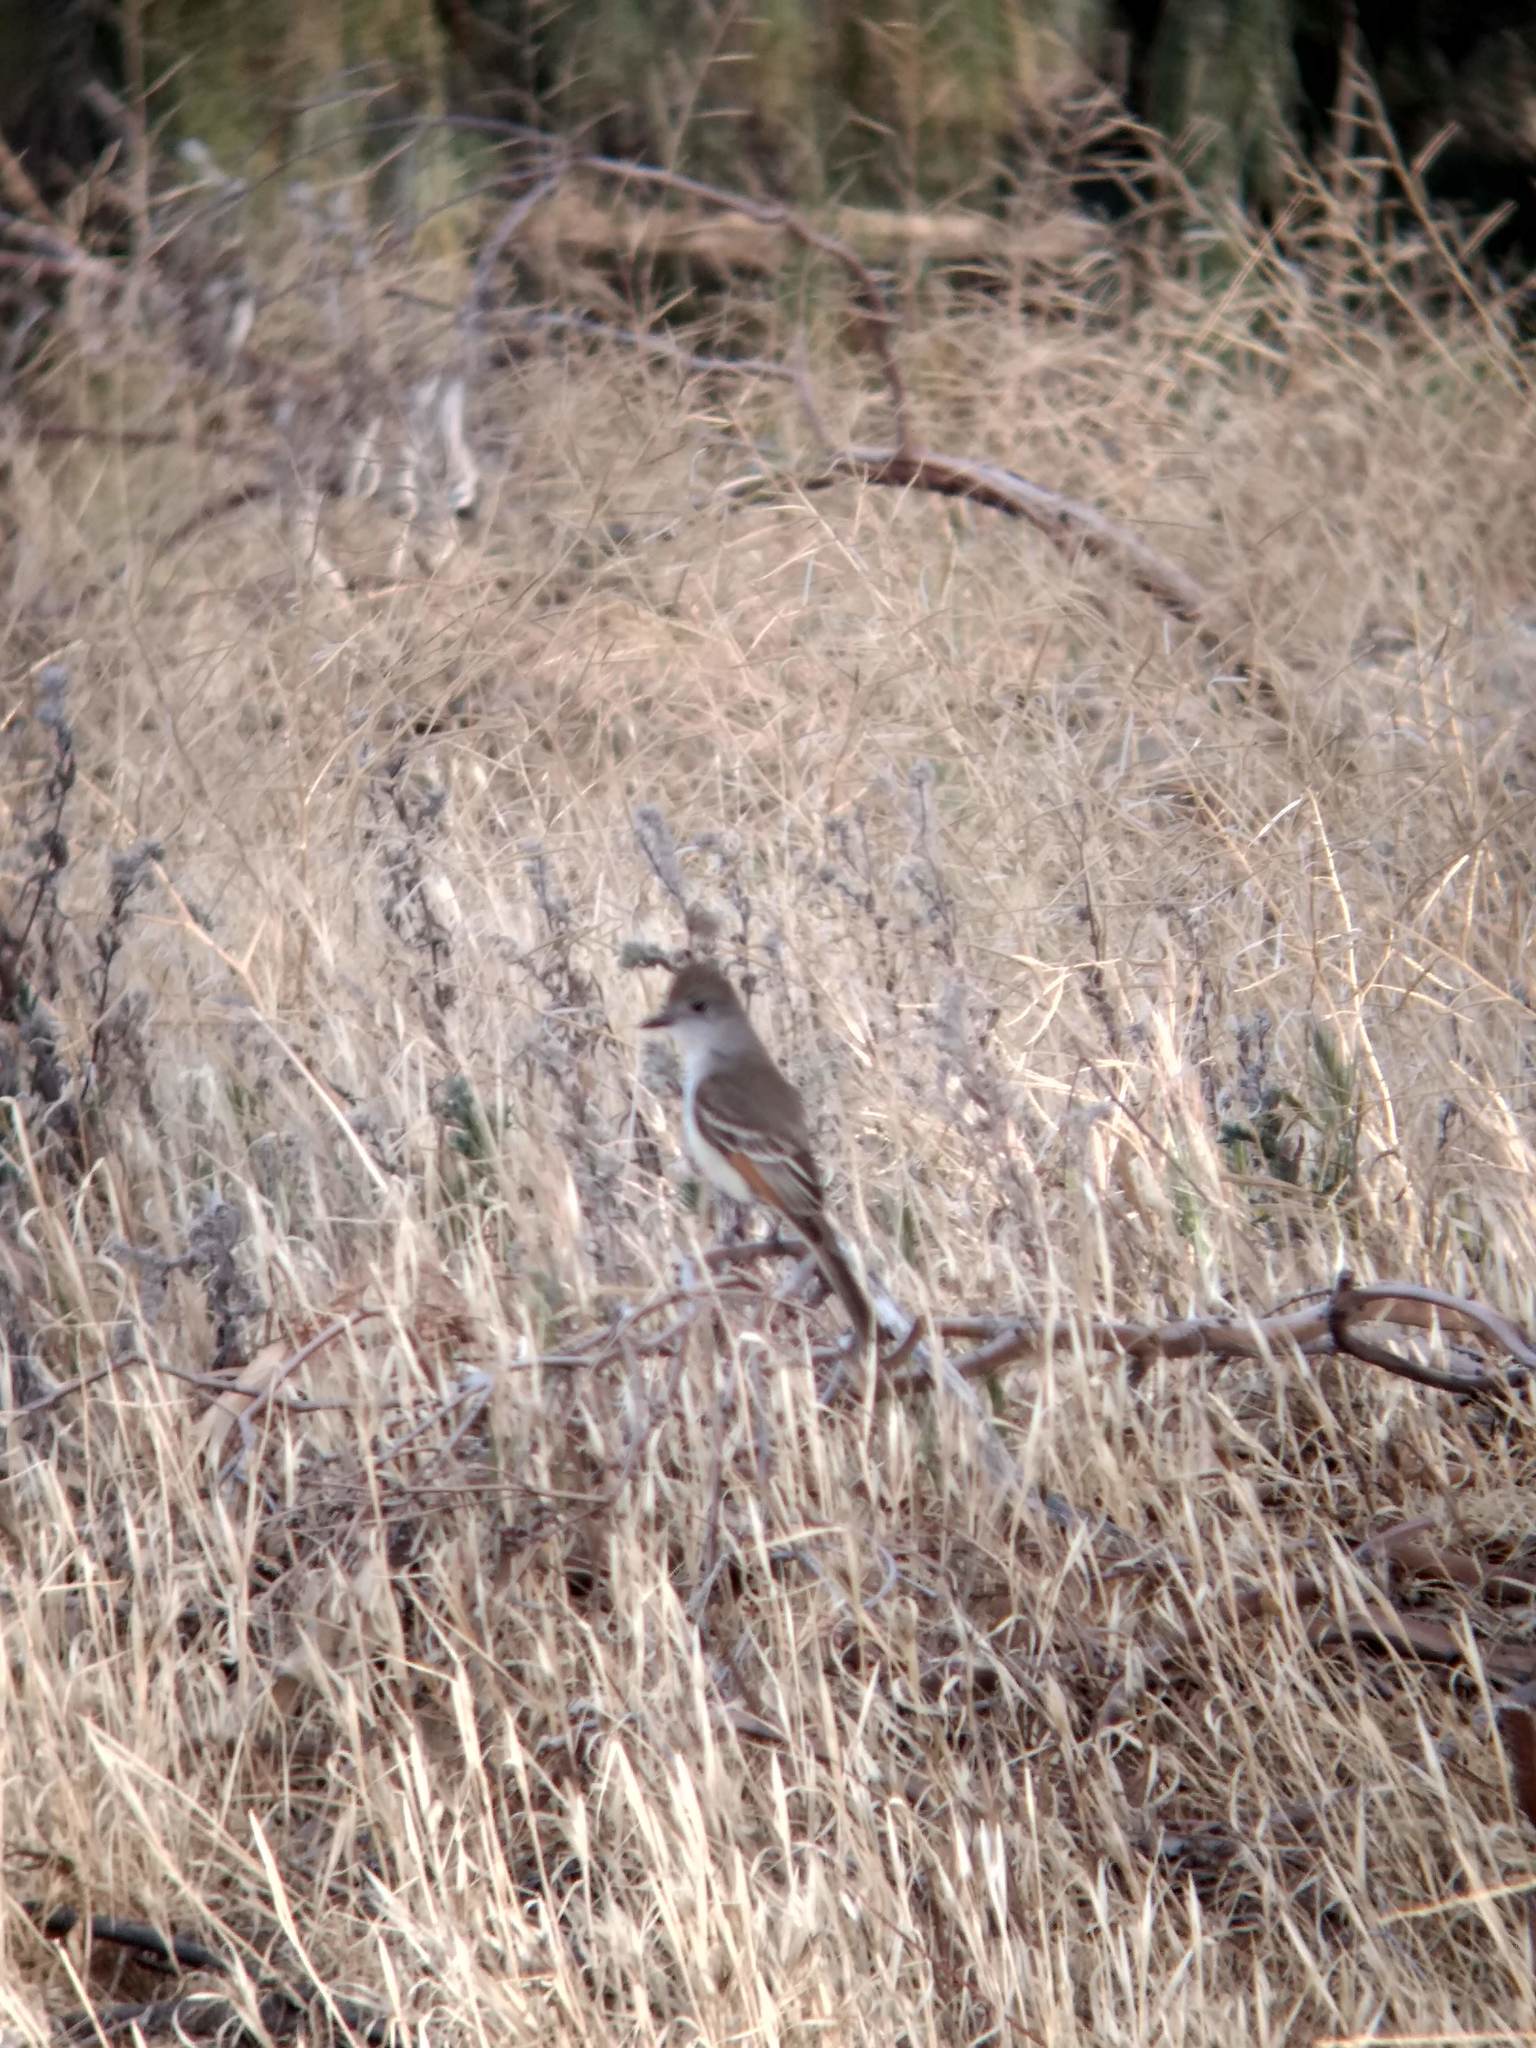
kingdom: Animalia
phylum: Chordata
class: Aves
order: Passeriformes
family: Tyrannidae
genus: Myiarchus
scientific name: Myiarchus cinerascens
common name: Ash-throated flycatcher
